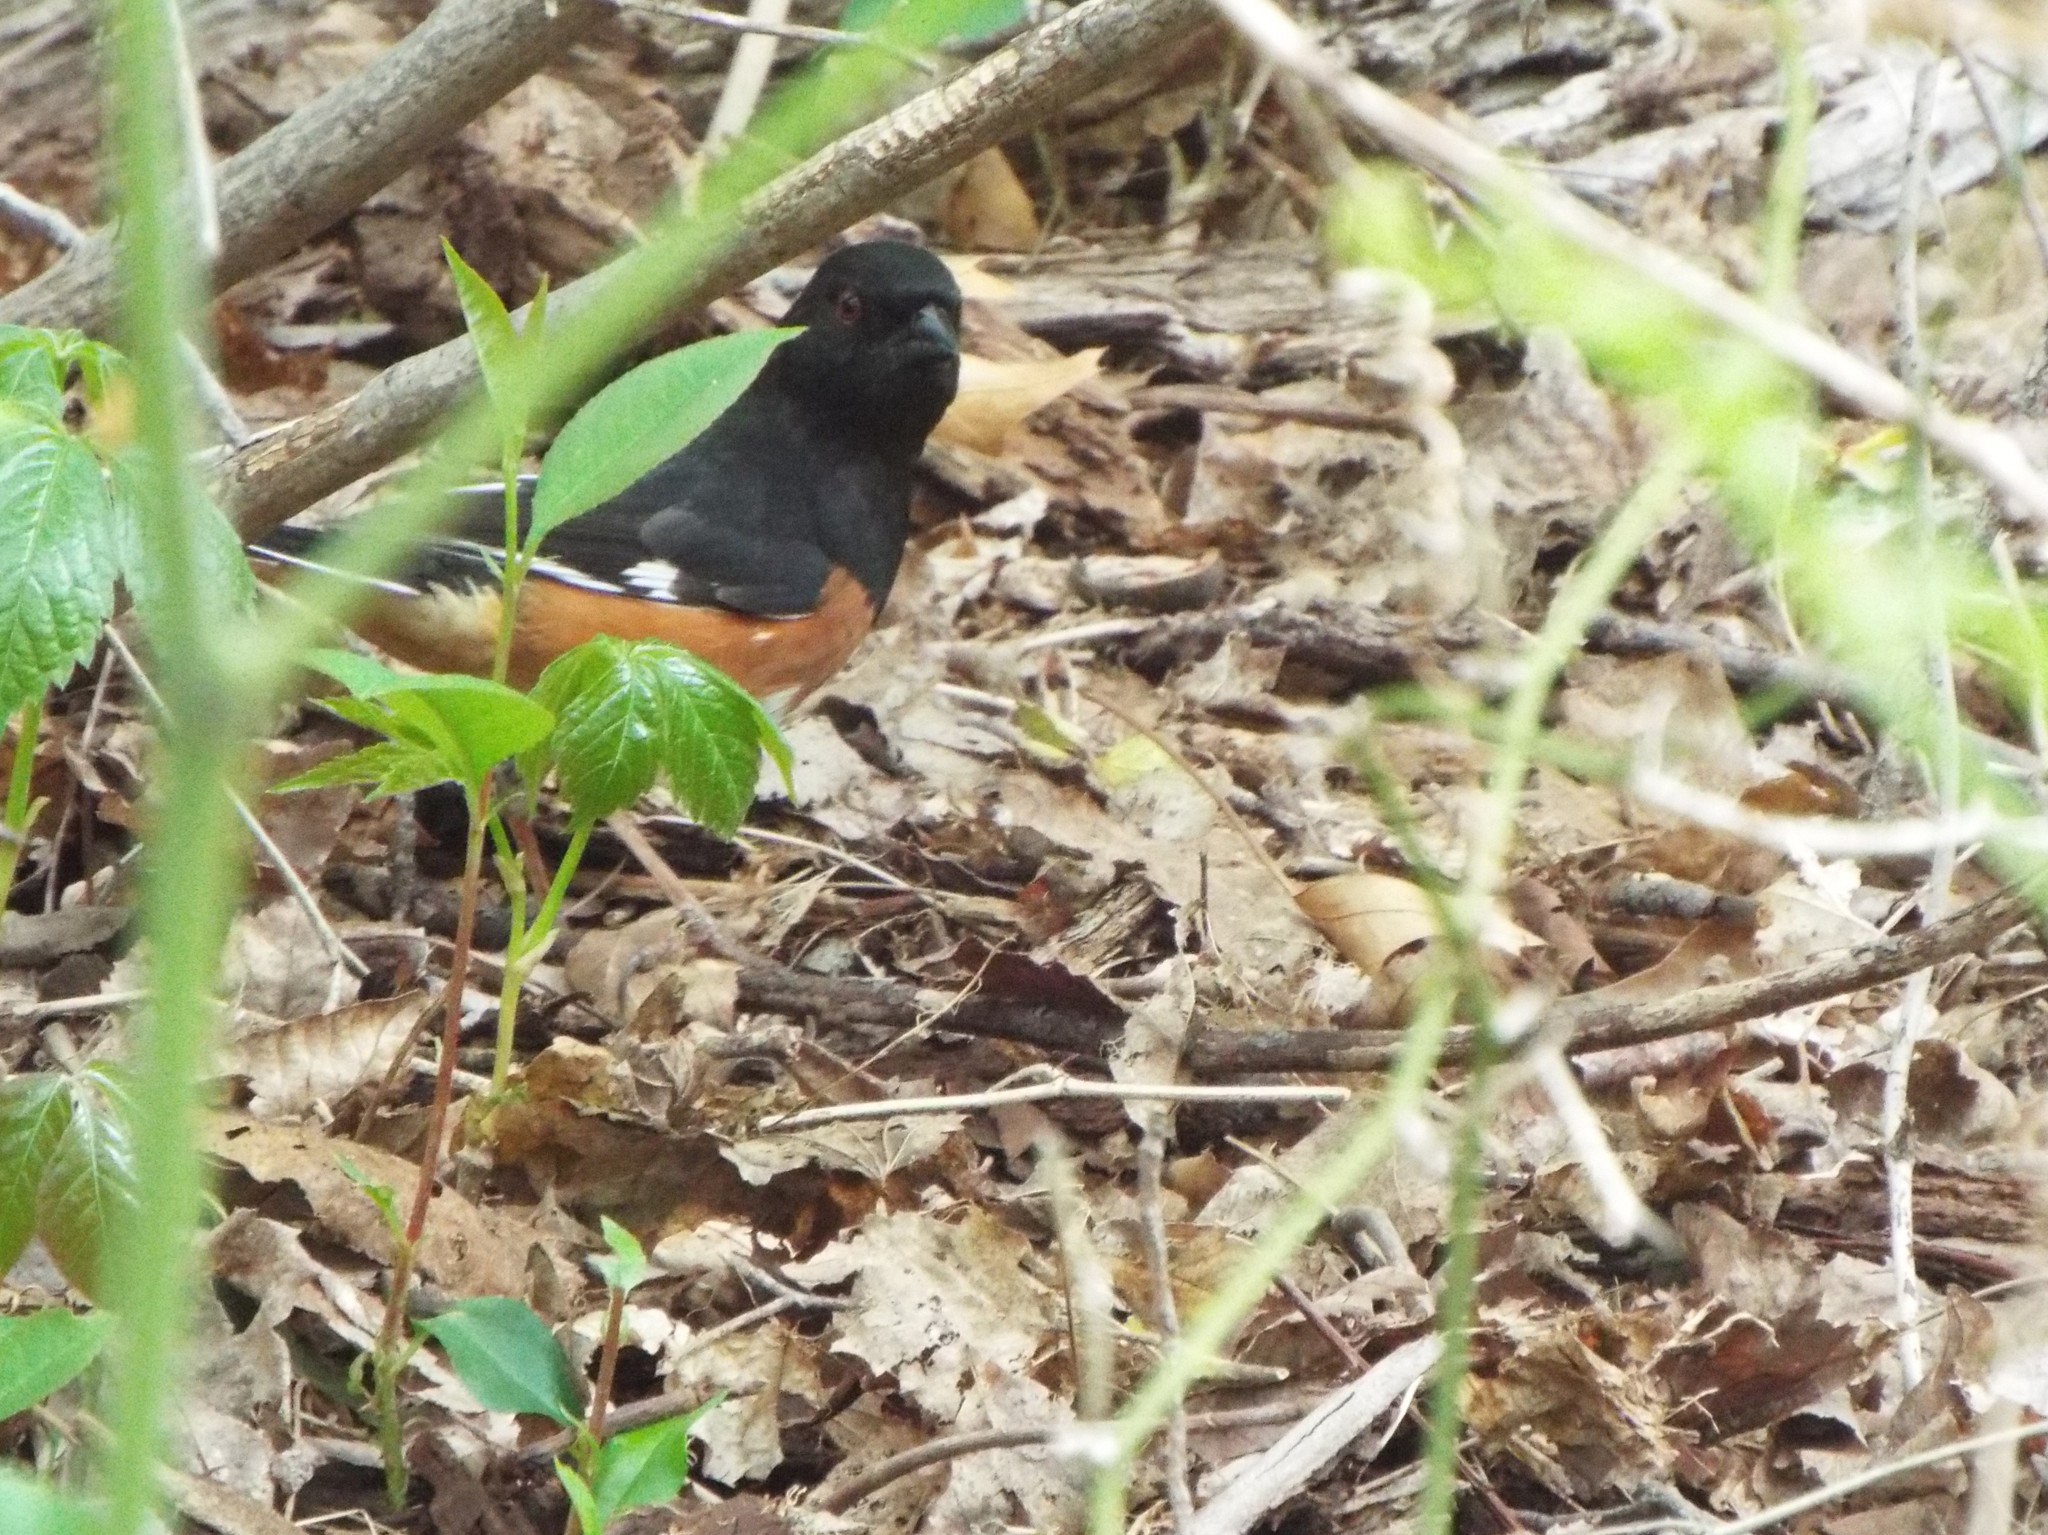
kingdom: Animalia
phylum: Chordata
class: Aves
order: Passeriformes
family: Passerellidae
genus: Pipilo
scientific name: Pipilo erythrophthalmus
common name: Eastern towhee
